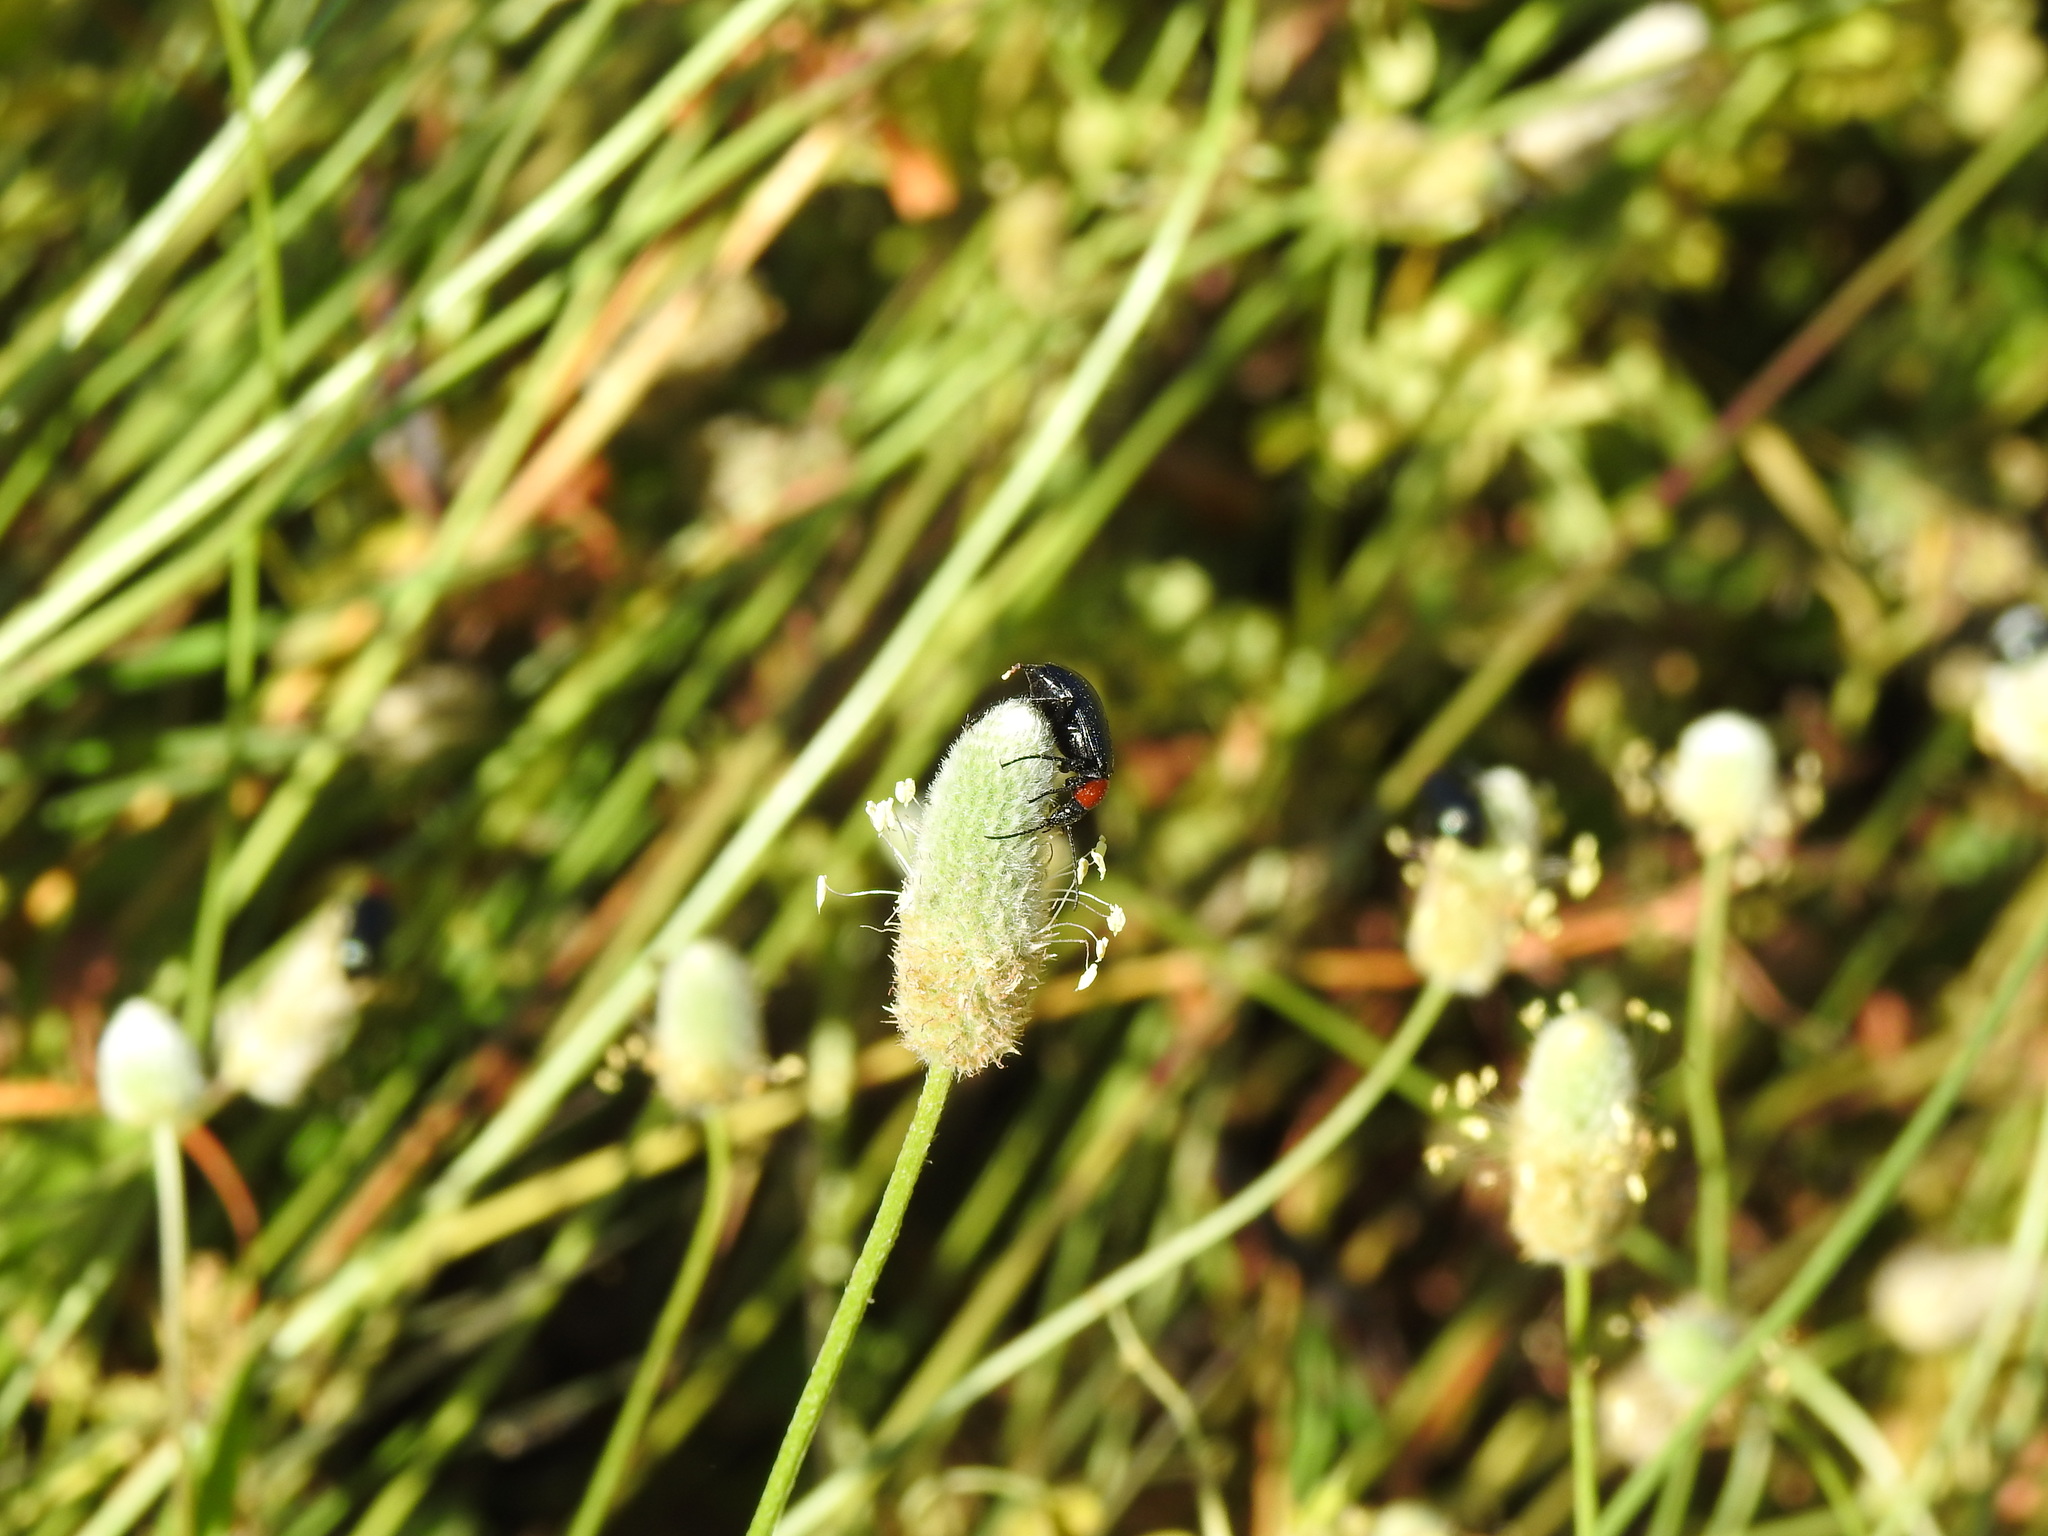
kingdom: Animalia
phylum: Arthropoda
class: Insecta
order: Coleoptera
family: Tenebrionidae
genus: Heliotaurus
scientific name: Heliotaurus ruficollis
